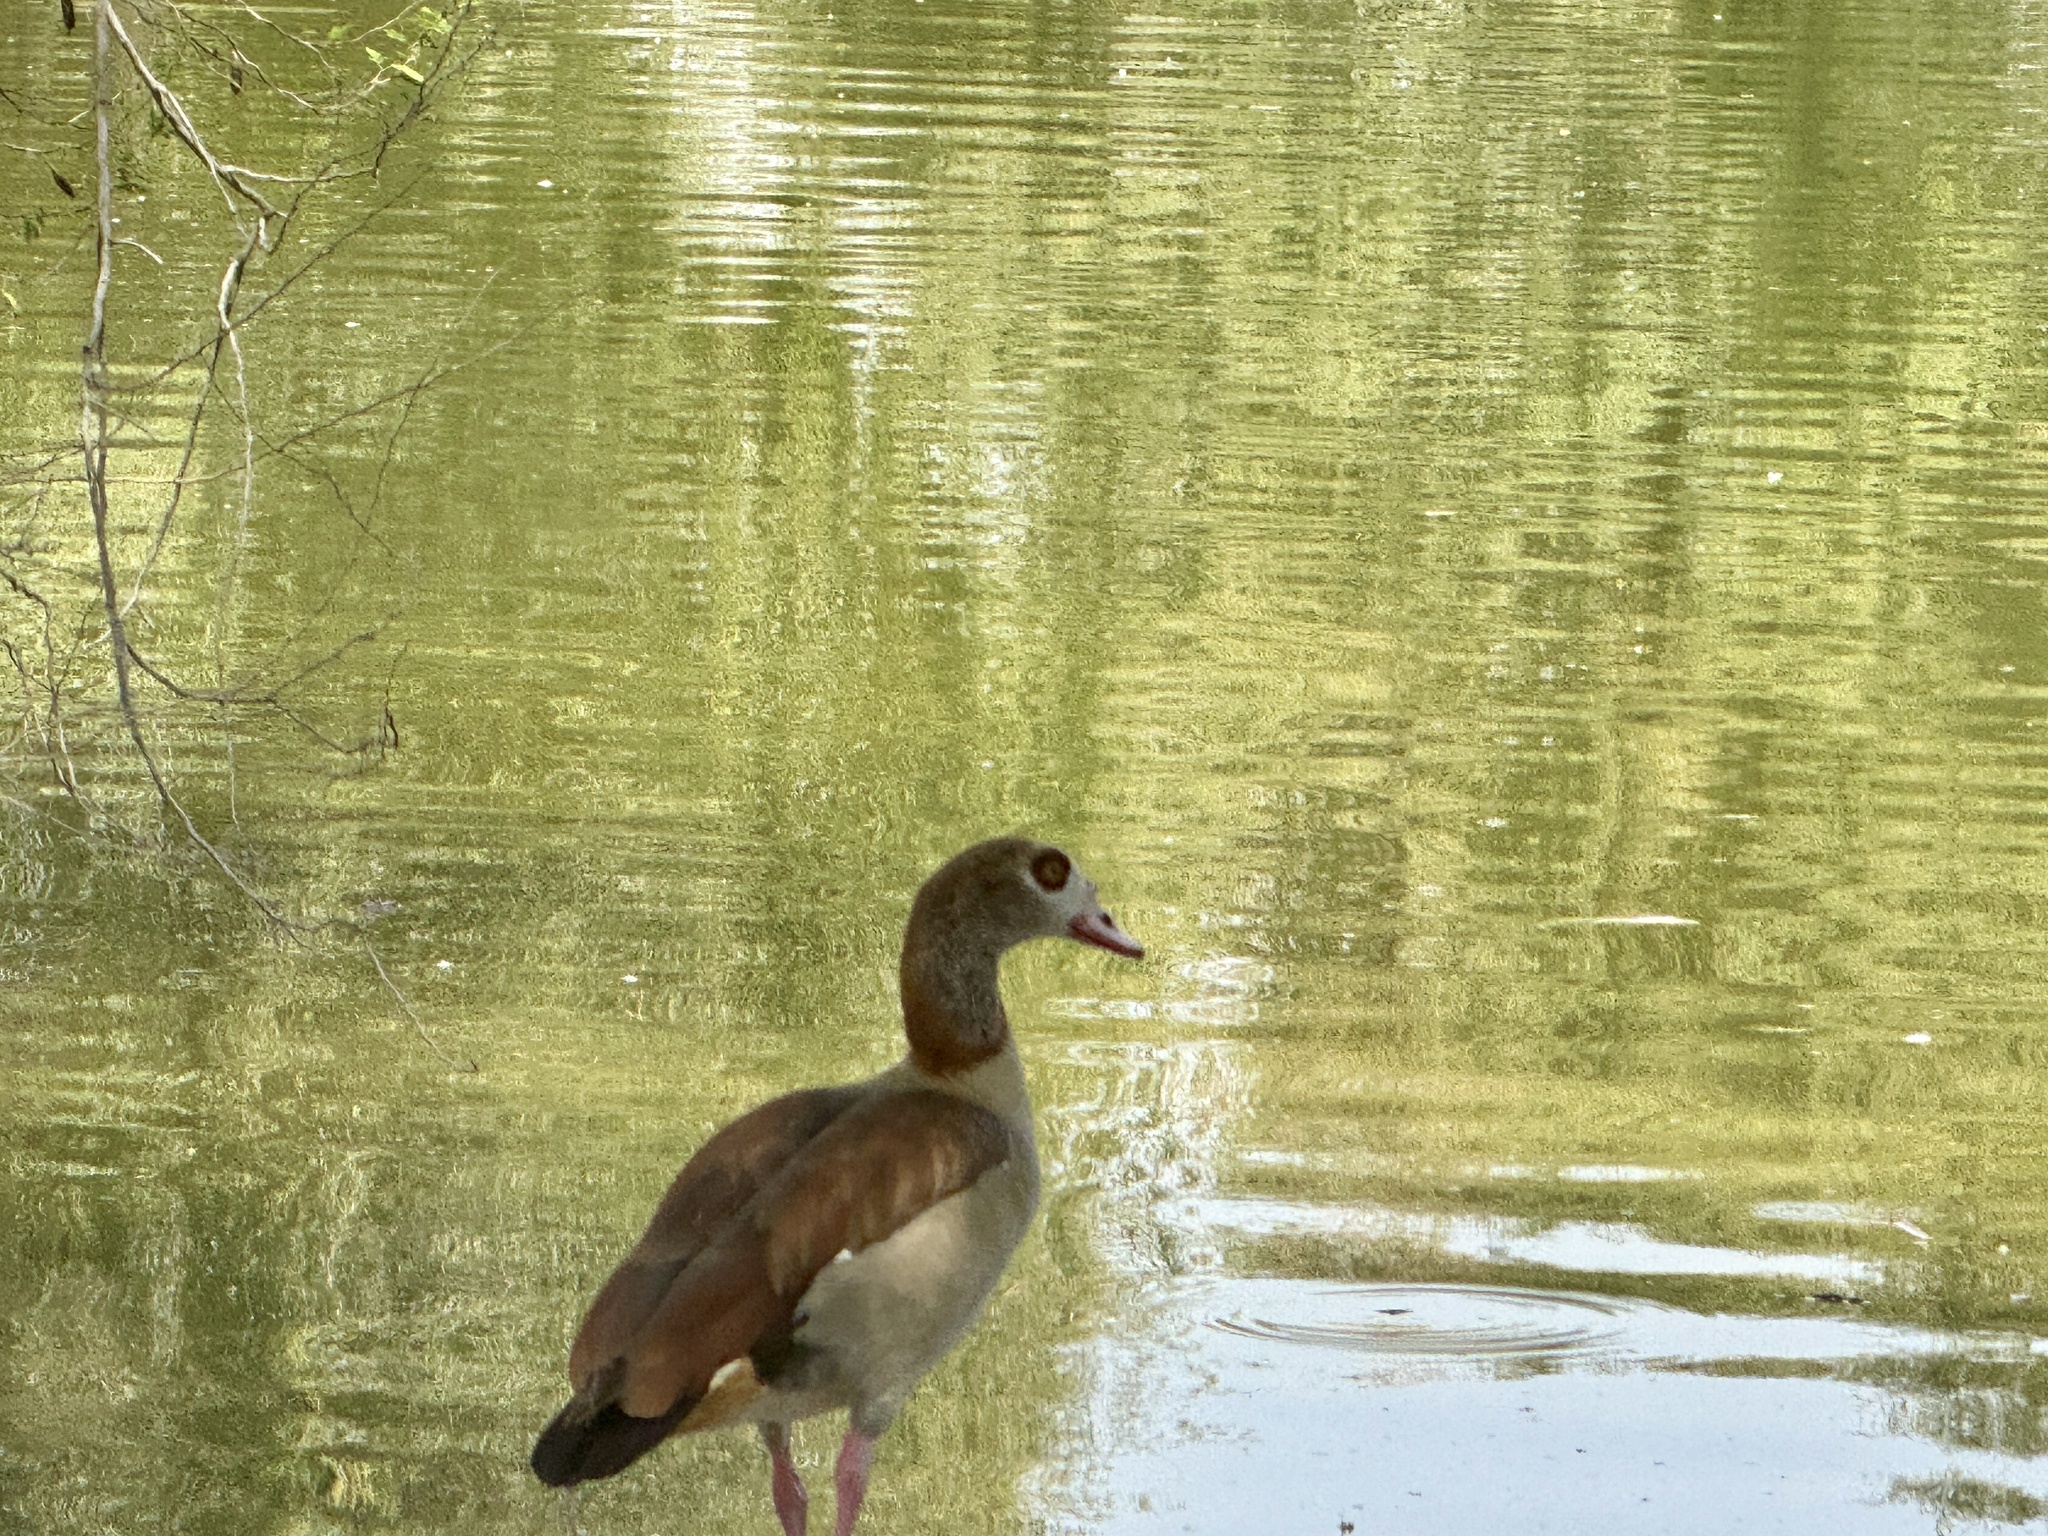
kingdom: Animalia
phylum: Chordata
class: Aves
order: Anseriformes
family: Anatidae
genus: Alopochen
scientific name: Alopochen aegyptiaca
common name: Egyptian goose
